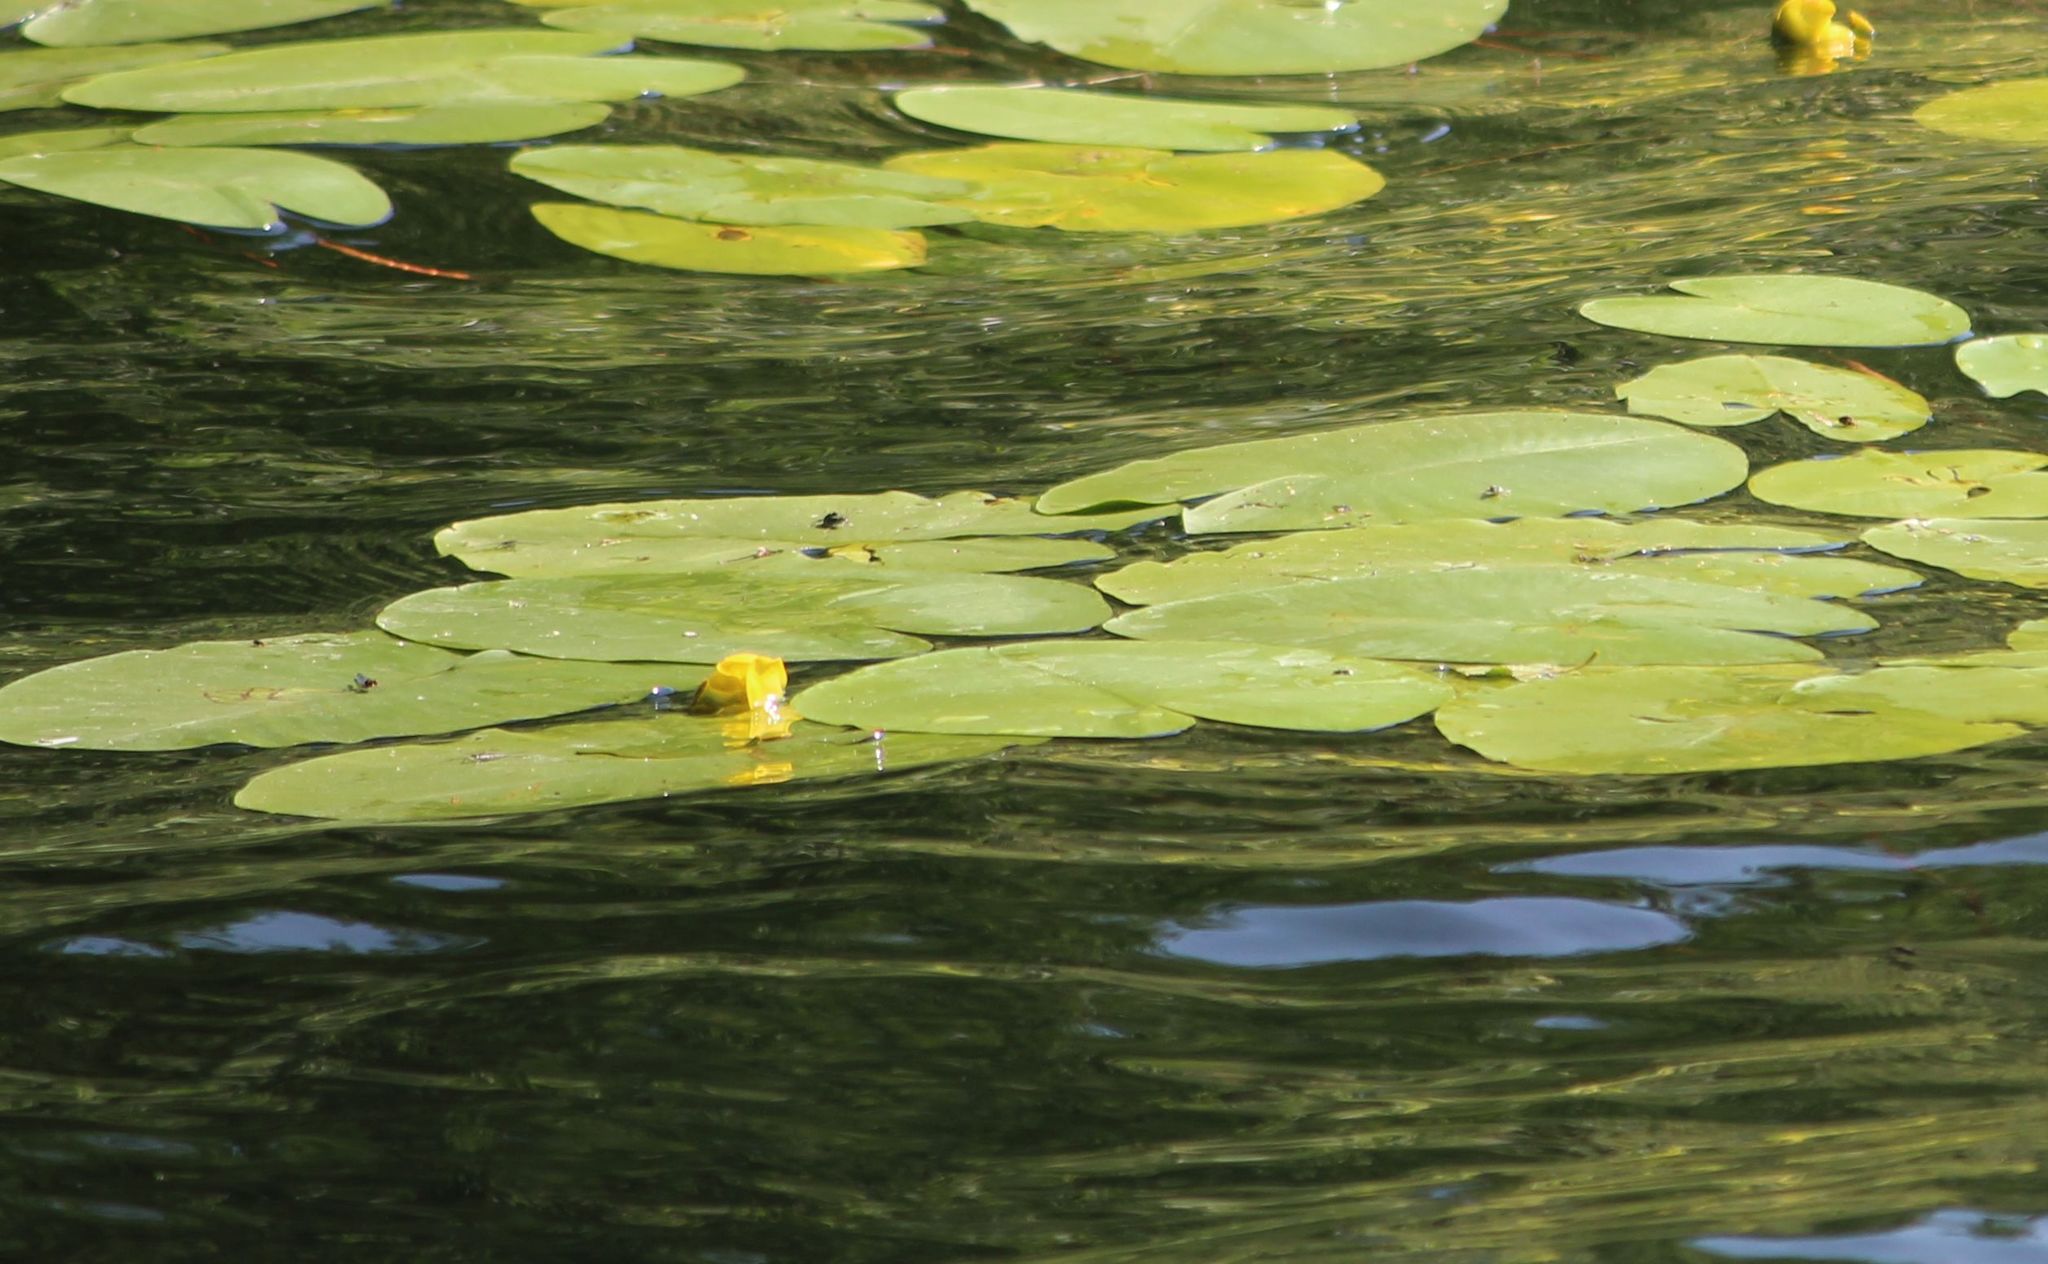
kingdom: Plantae
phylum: Tracheophyta
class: Magnoliopsida
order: Nymphaeales
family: Nymphaeaceae
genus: Nuphar
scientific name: Nuphar lutea
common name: Yellow water-lily
